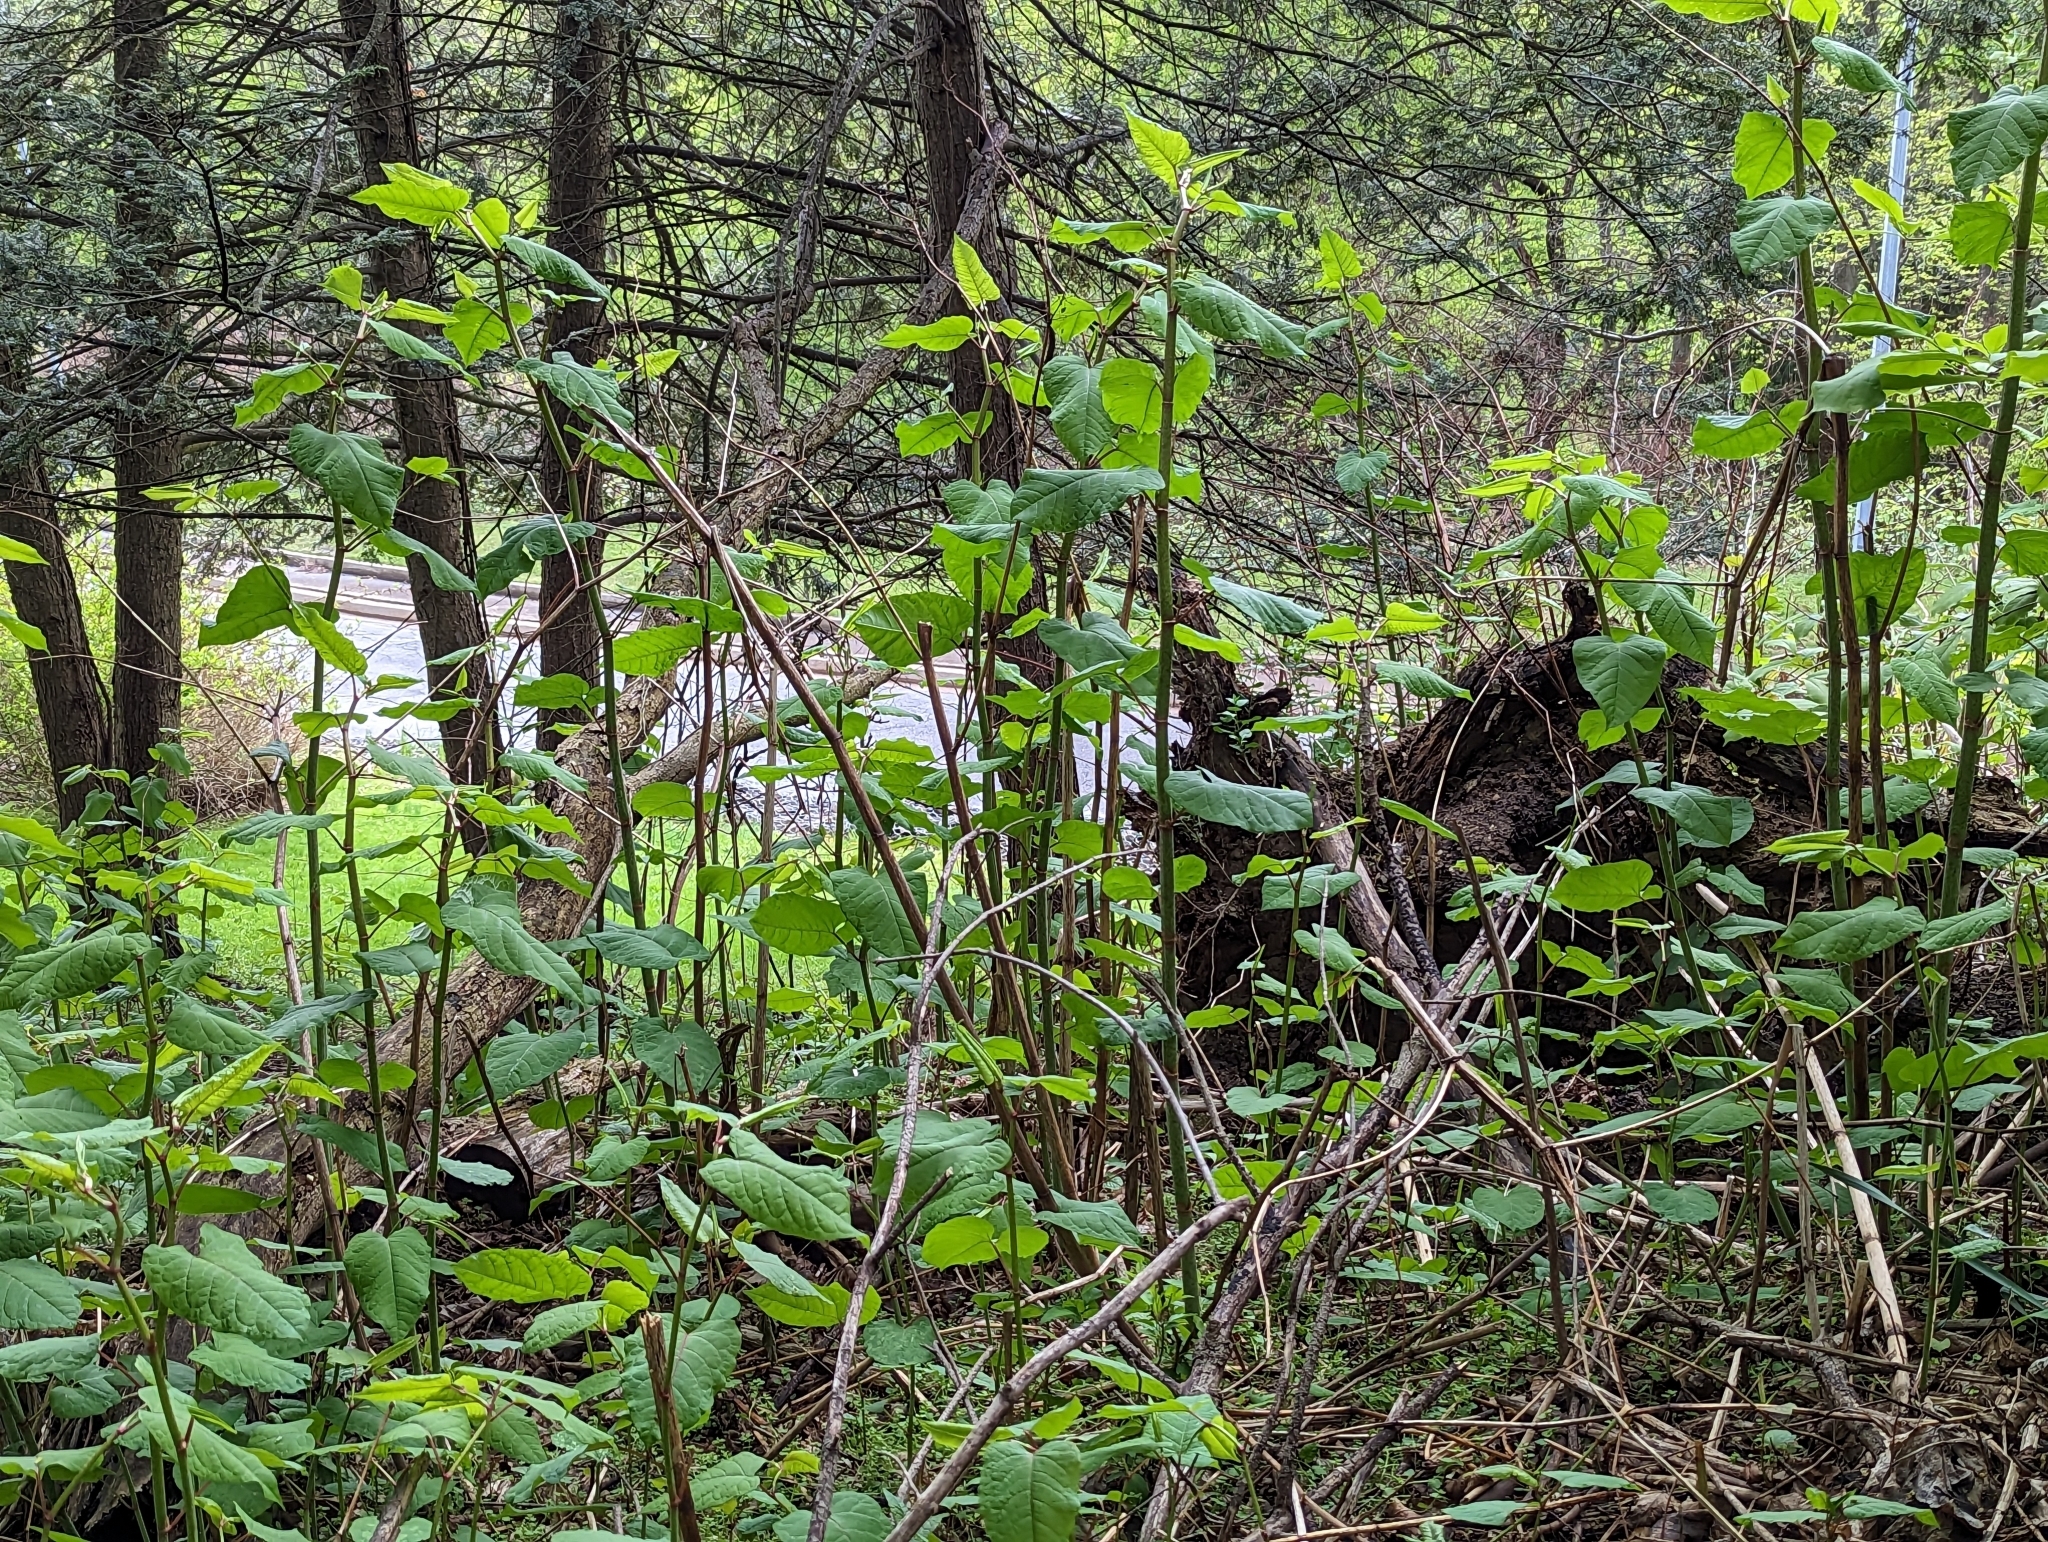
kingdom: Plantae
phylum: Tracheophyta
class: Magnoliopsida
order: Caryophyllales
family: Polygonaceae
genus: Reynoutria
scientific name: Reynoutria japonica
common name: Japanese knotweed
